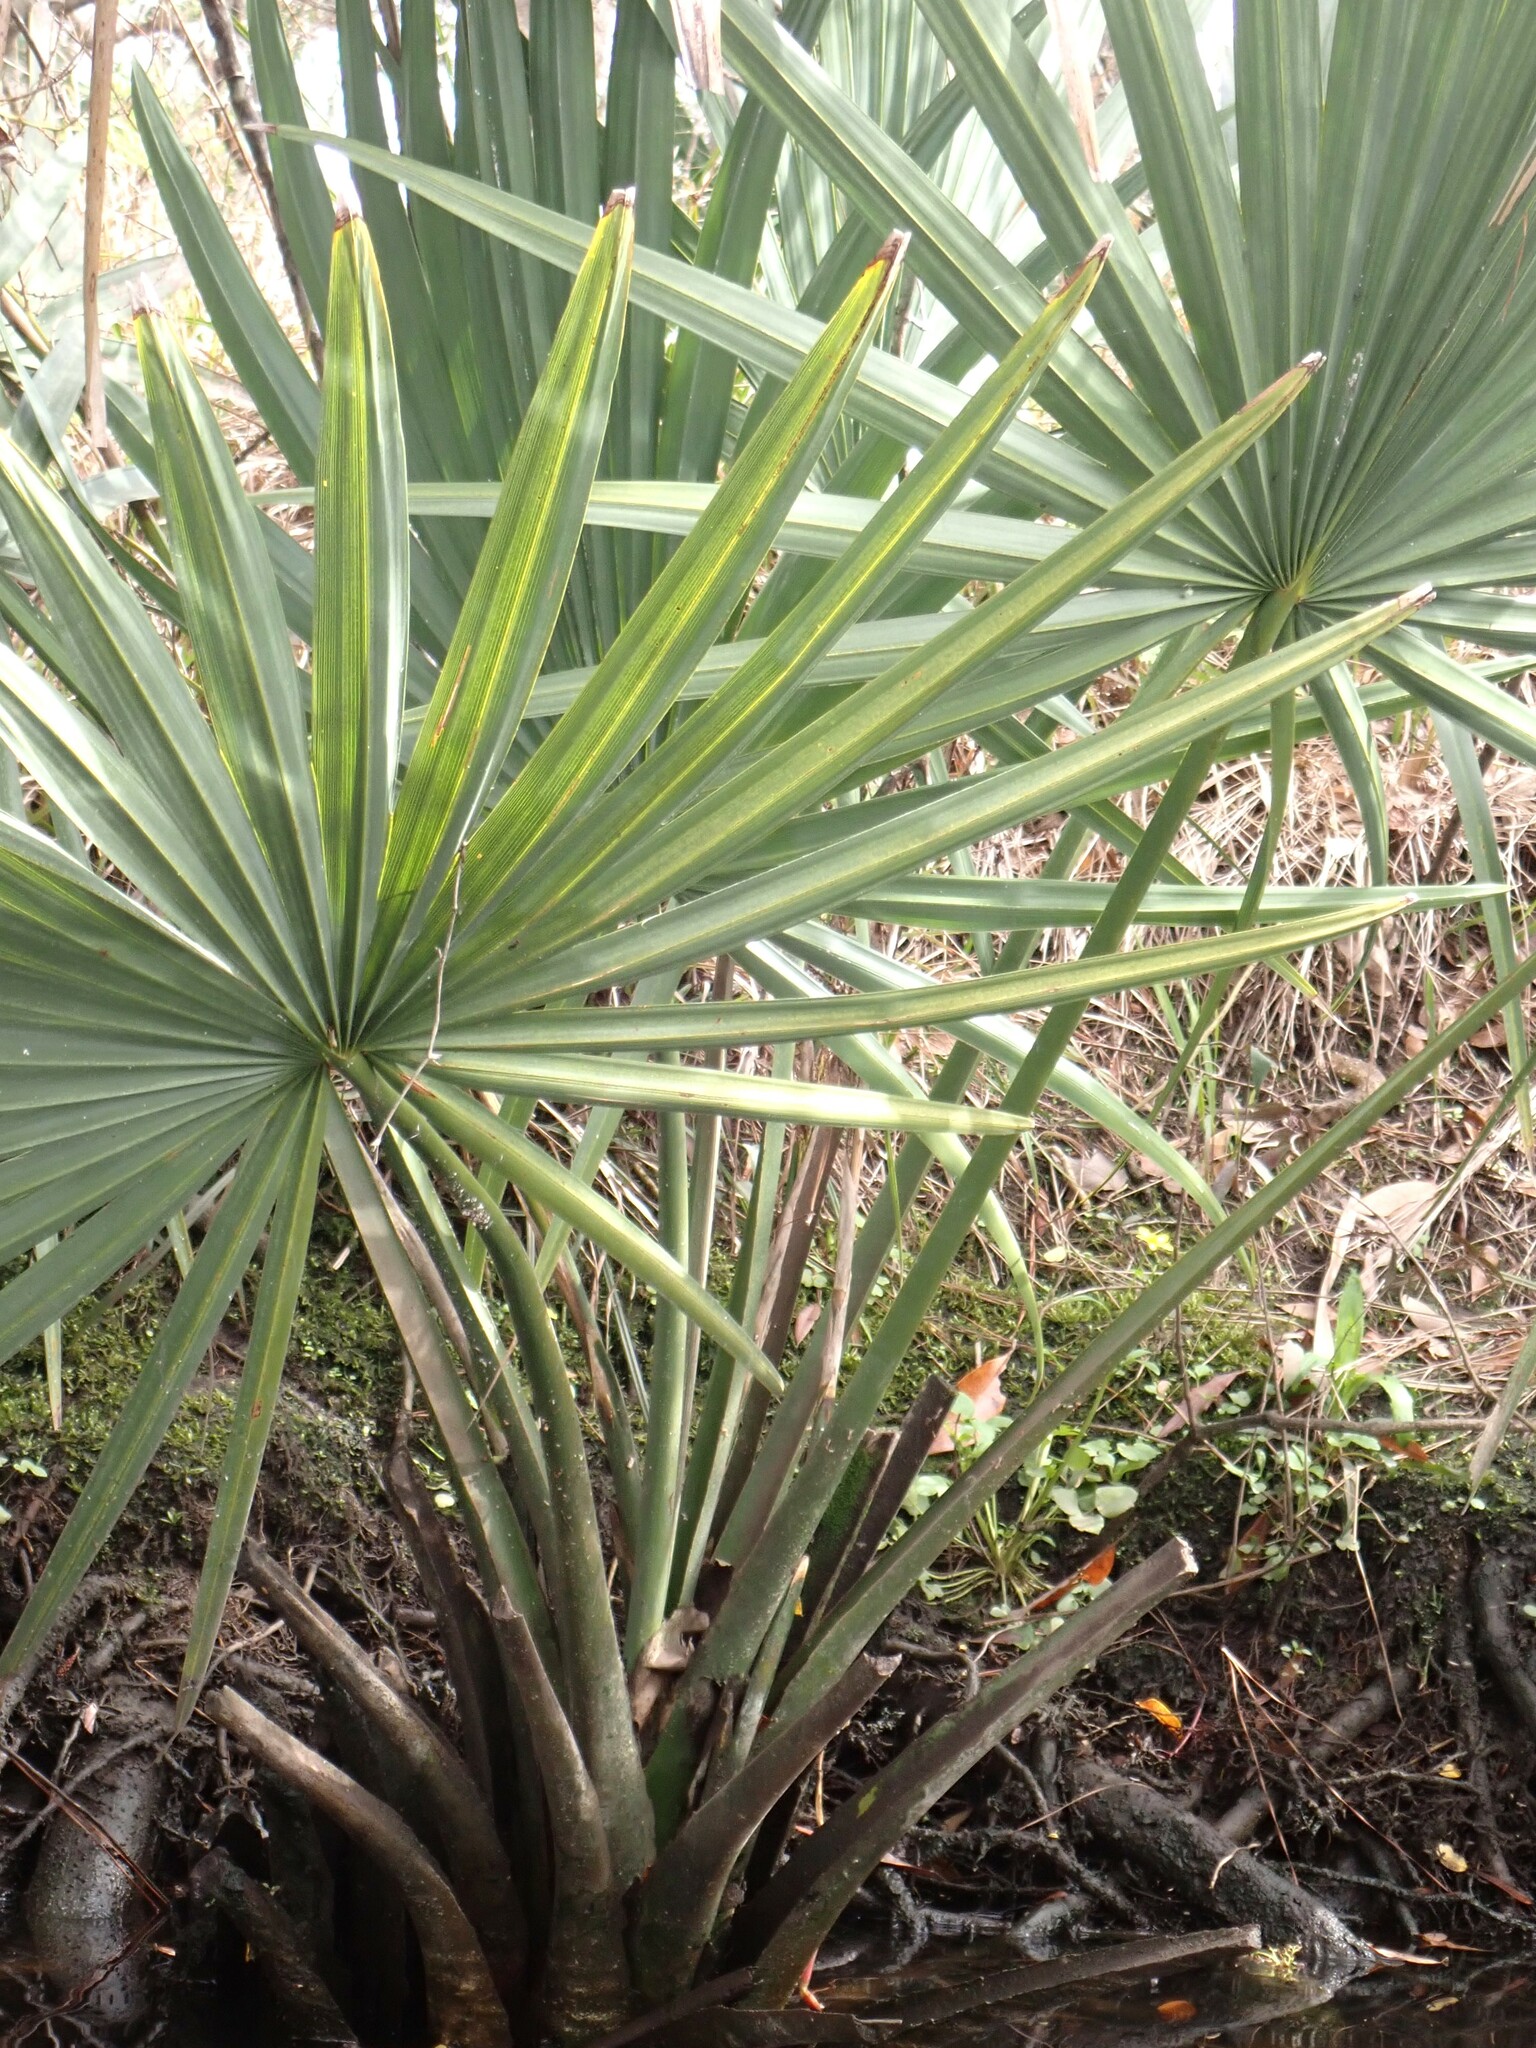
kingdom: Plantae
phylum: Tracheophyta
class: Liliopsida
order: Arecales
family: Arecaceae
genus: Sabal
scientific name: Sabal minor
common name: Dwarf palmetto
